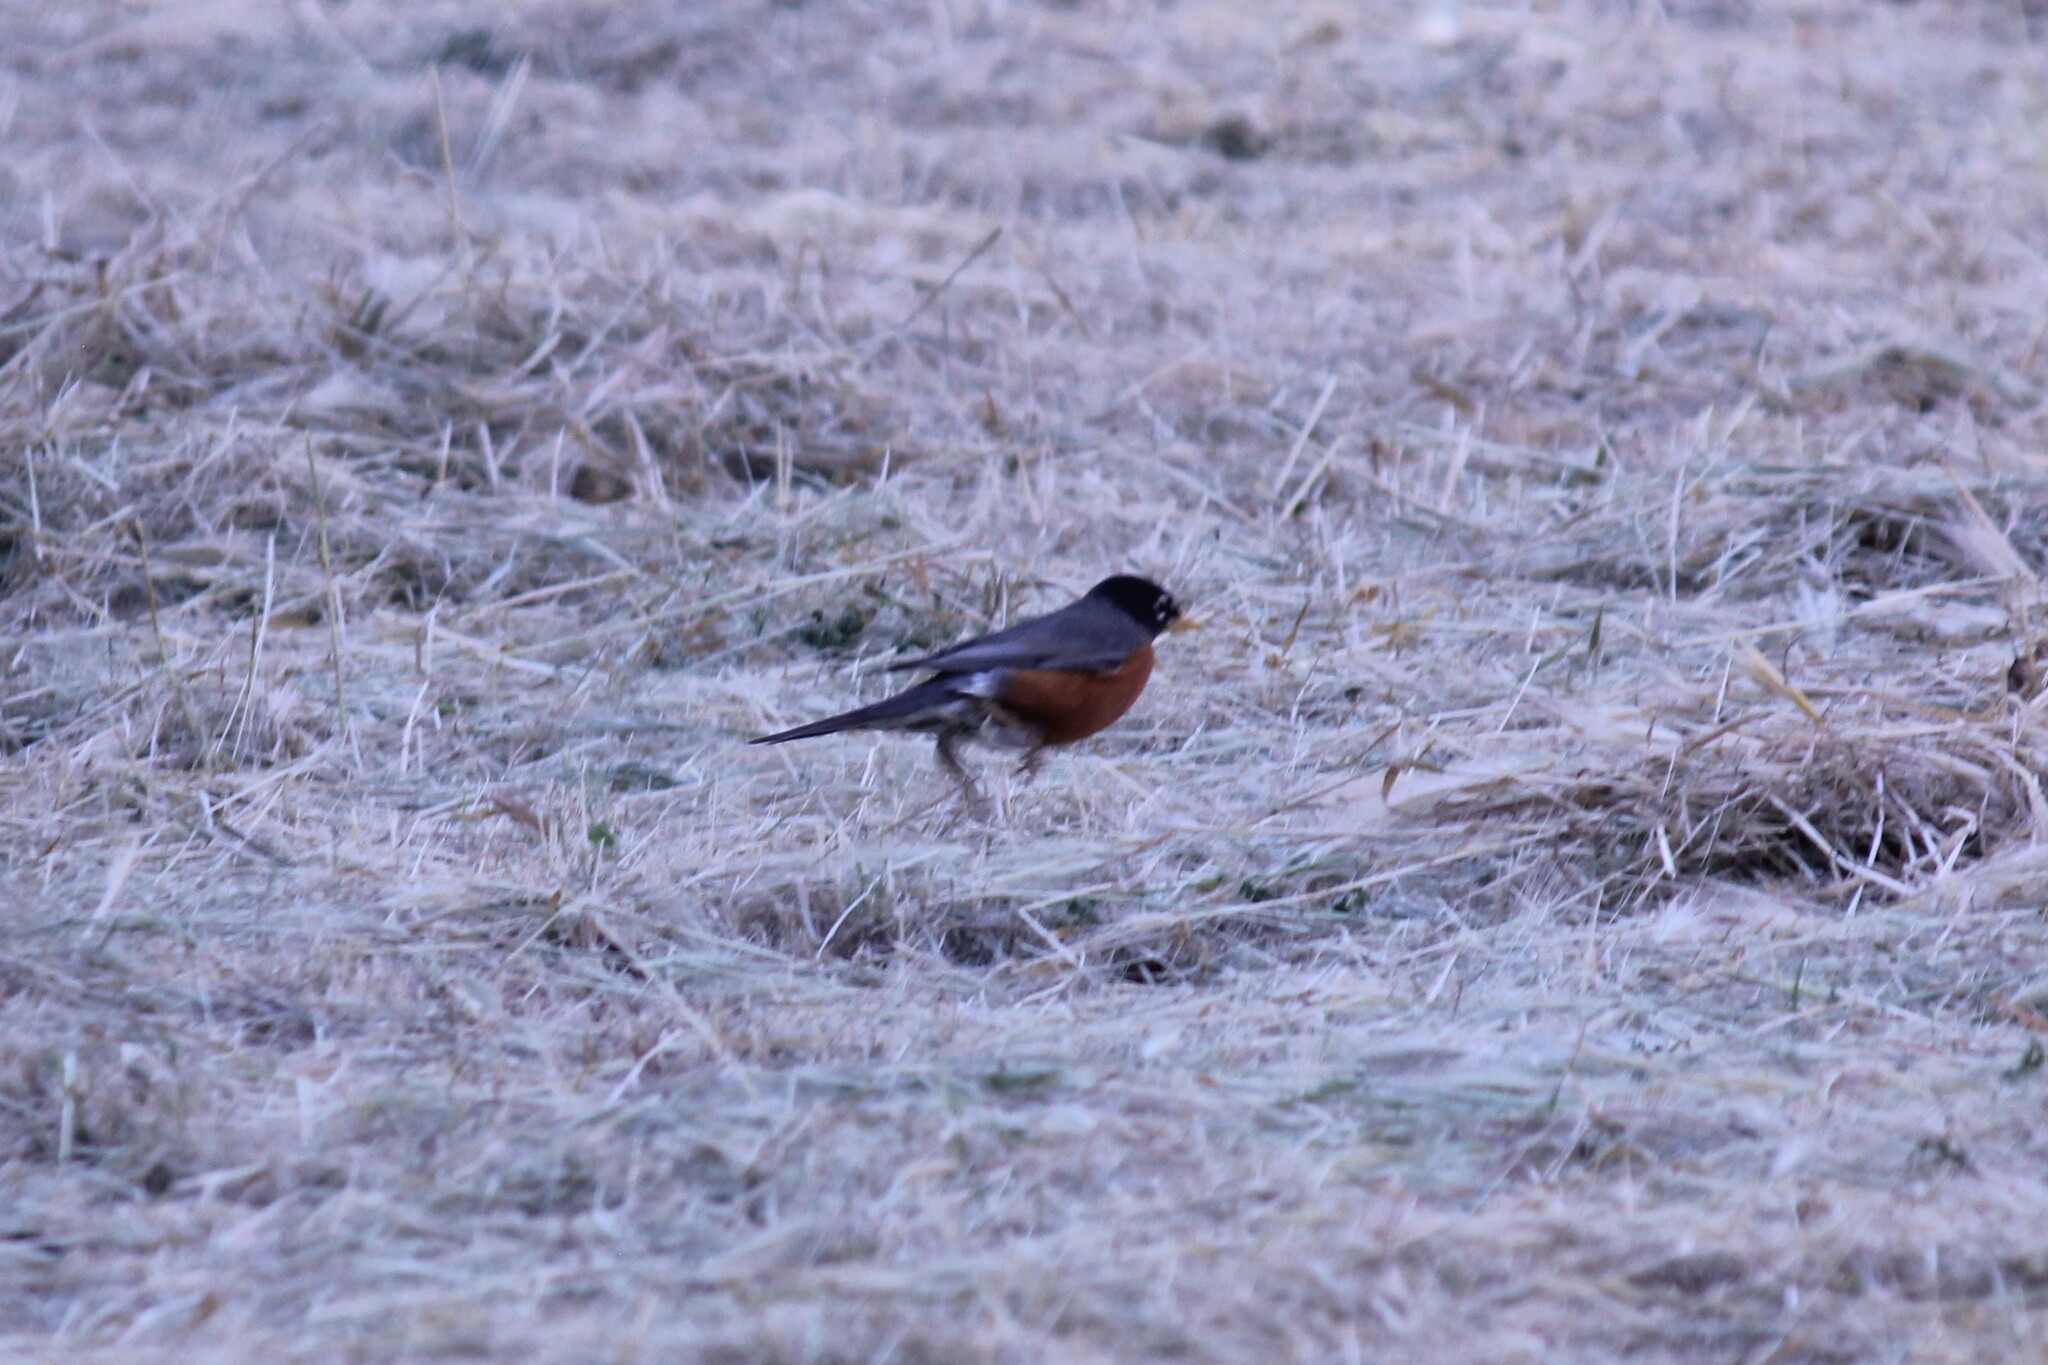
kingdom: Animalia
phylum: Chordata
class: Aves
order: Passeriformes
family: Turdidae
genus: Turdus
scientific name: Turdus migratorius
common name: American robin
